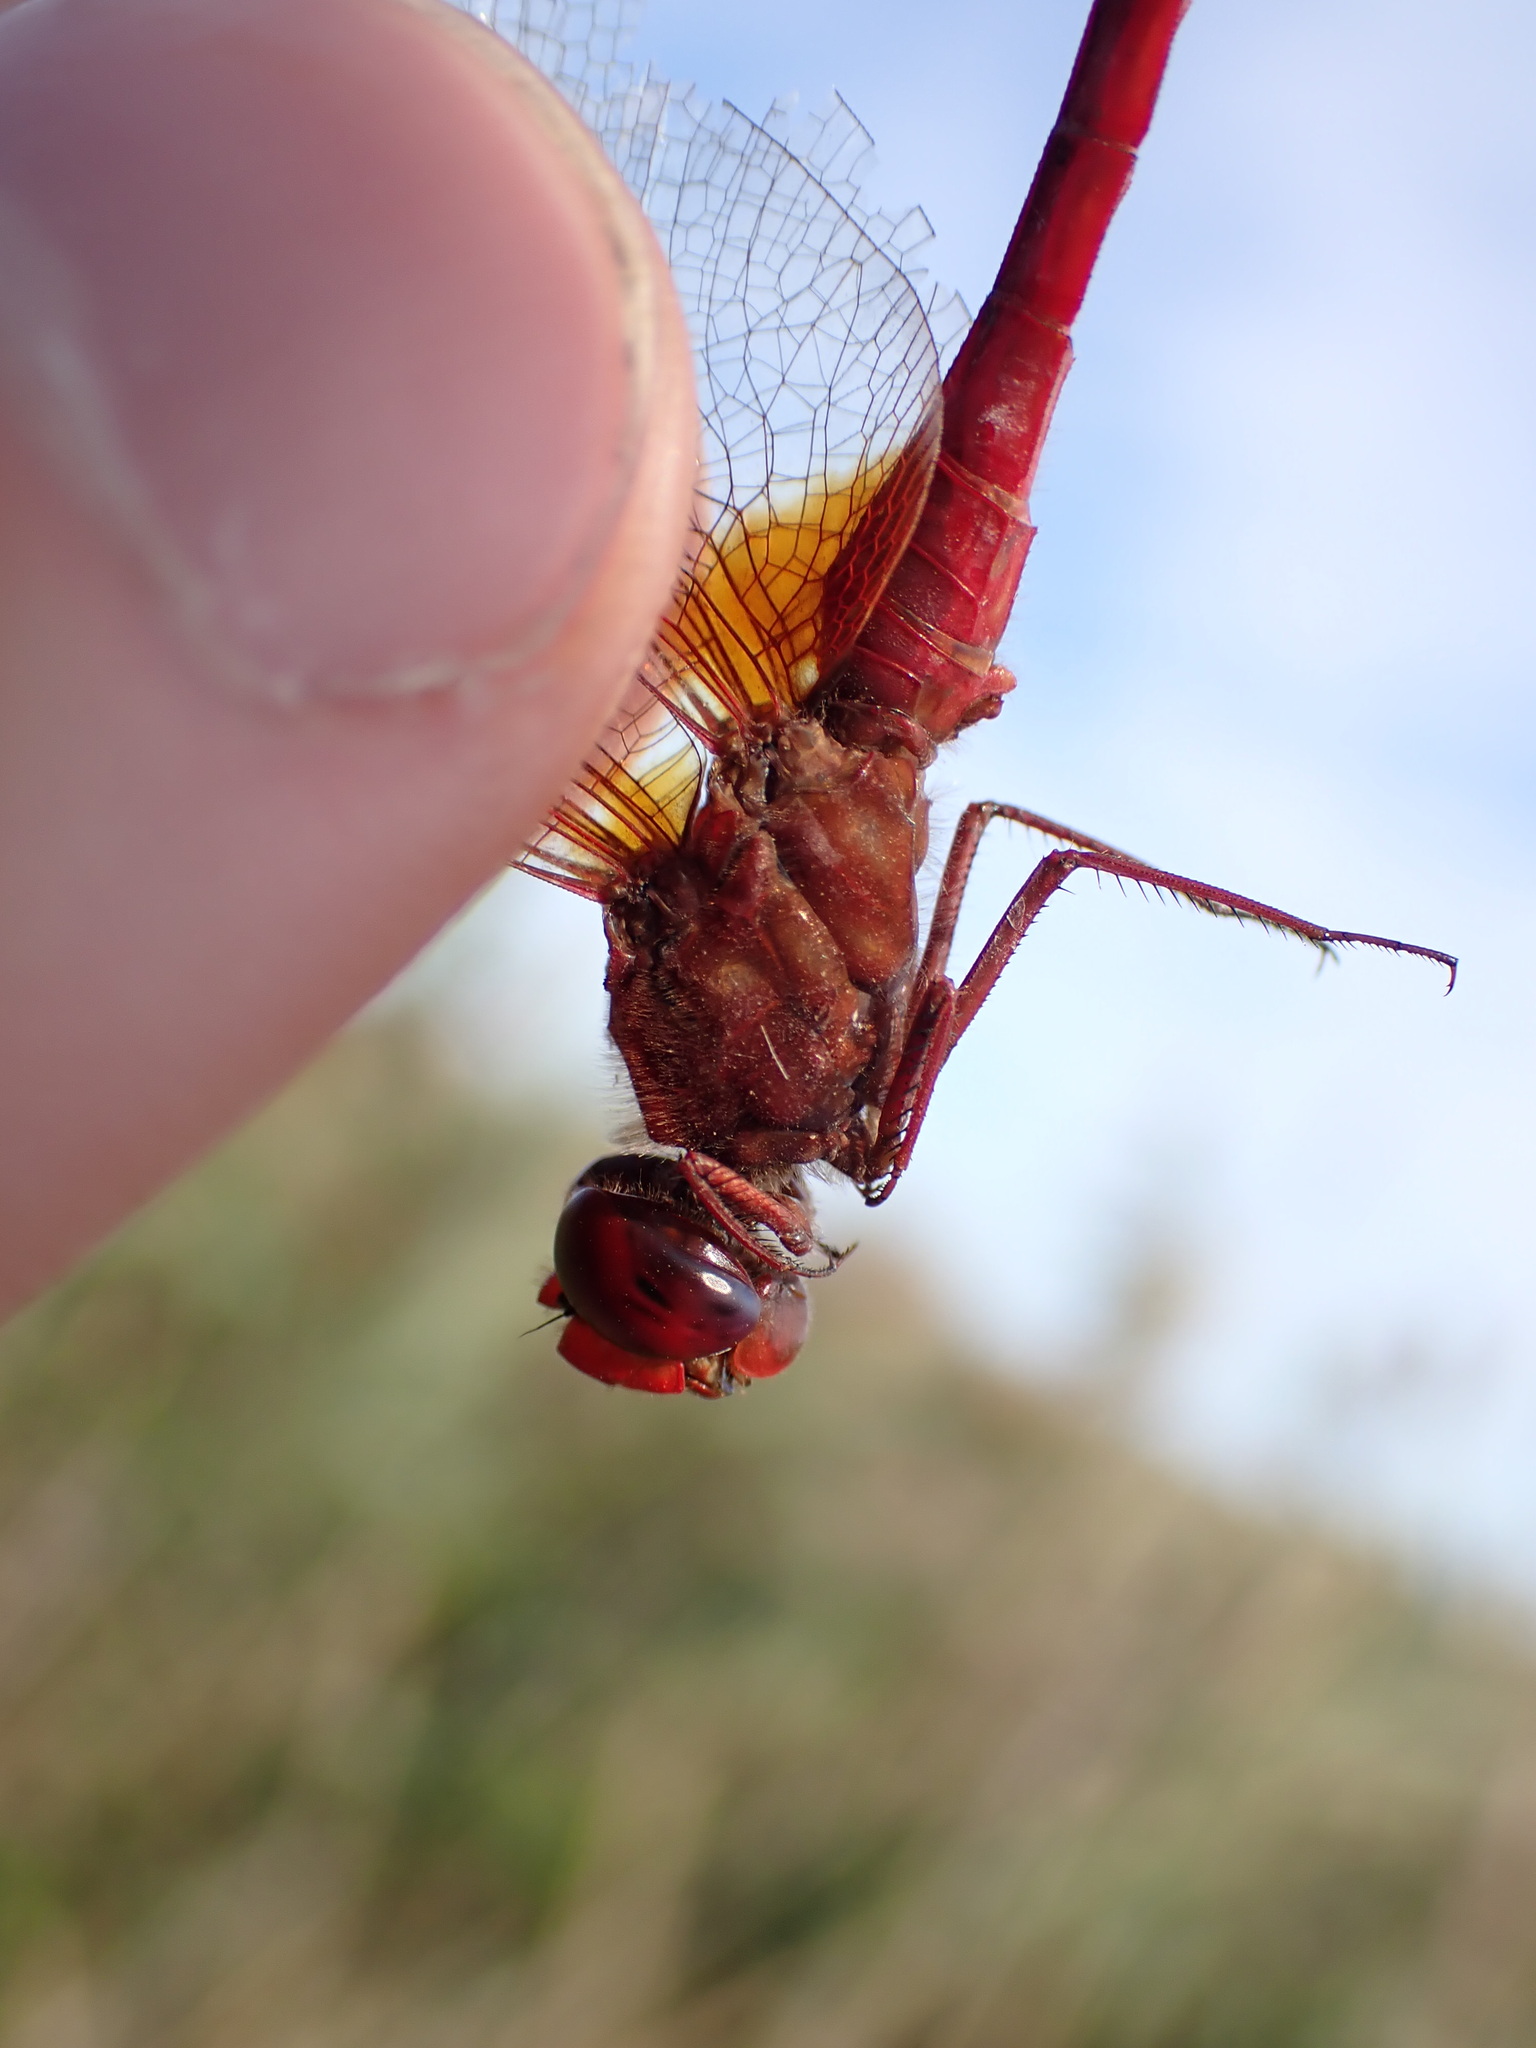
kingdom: Animalia
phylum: Arthropoda
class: Insecta
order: Odonata
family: Libellulidae
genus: Crocothemis
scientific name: Crocothemis erythraea
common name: Scarlet dragonfly
